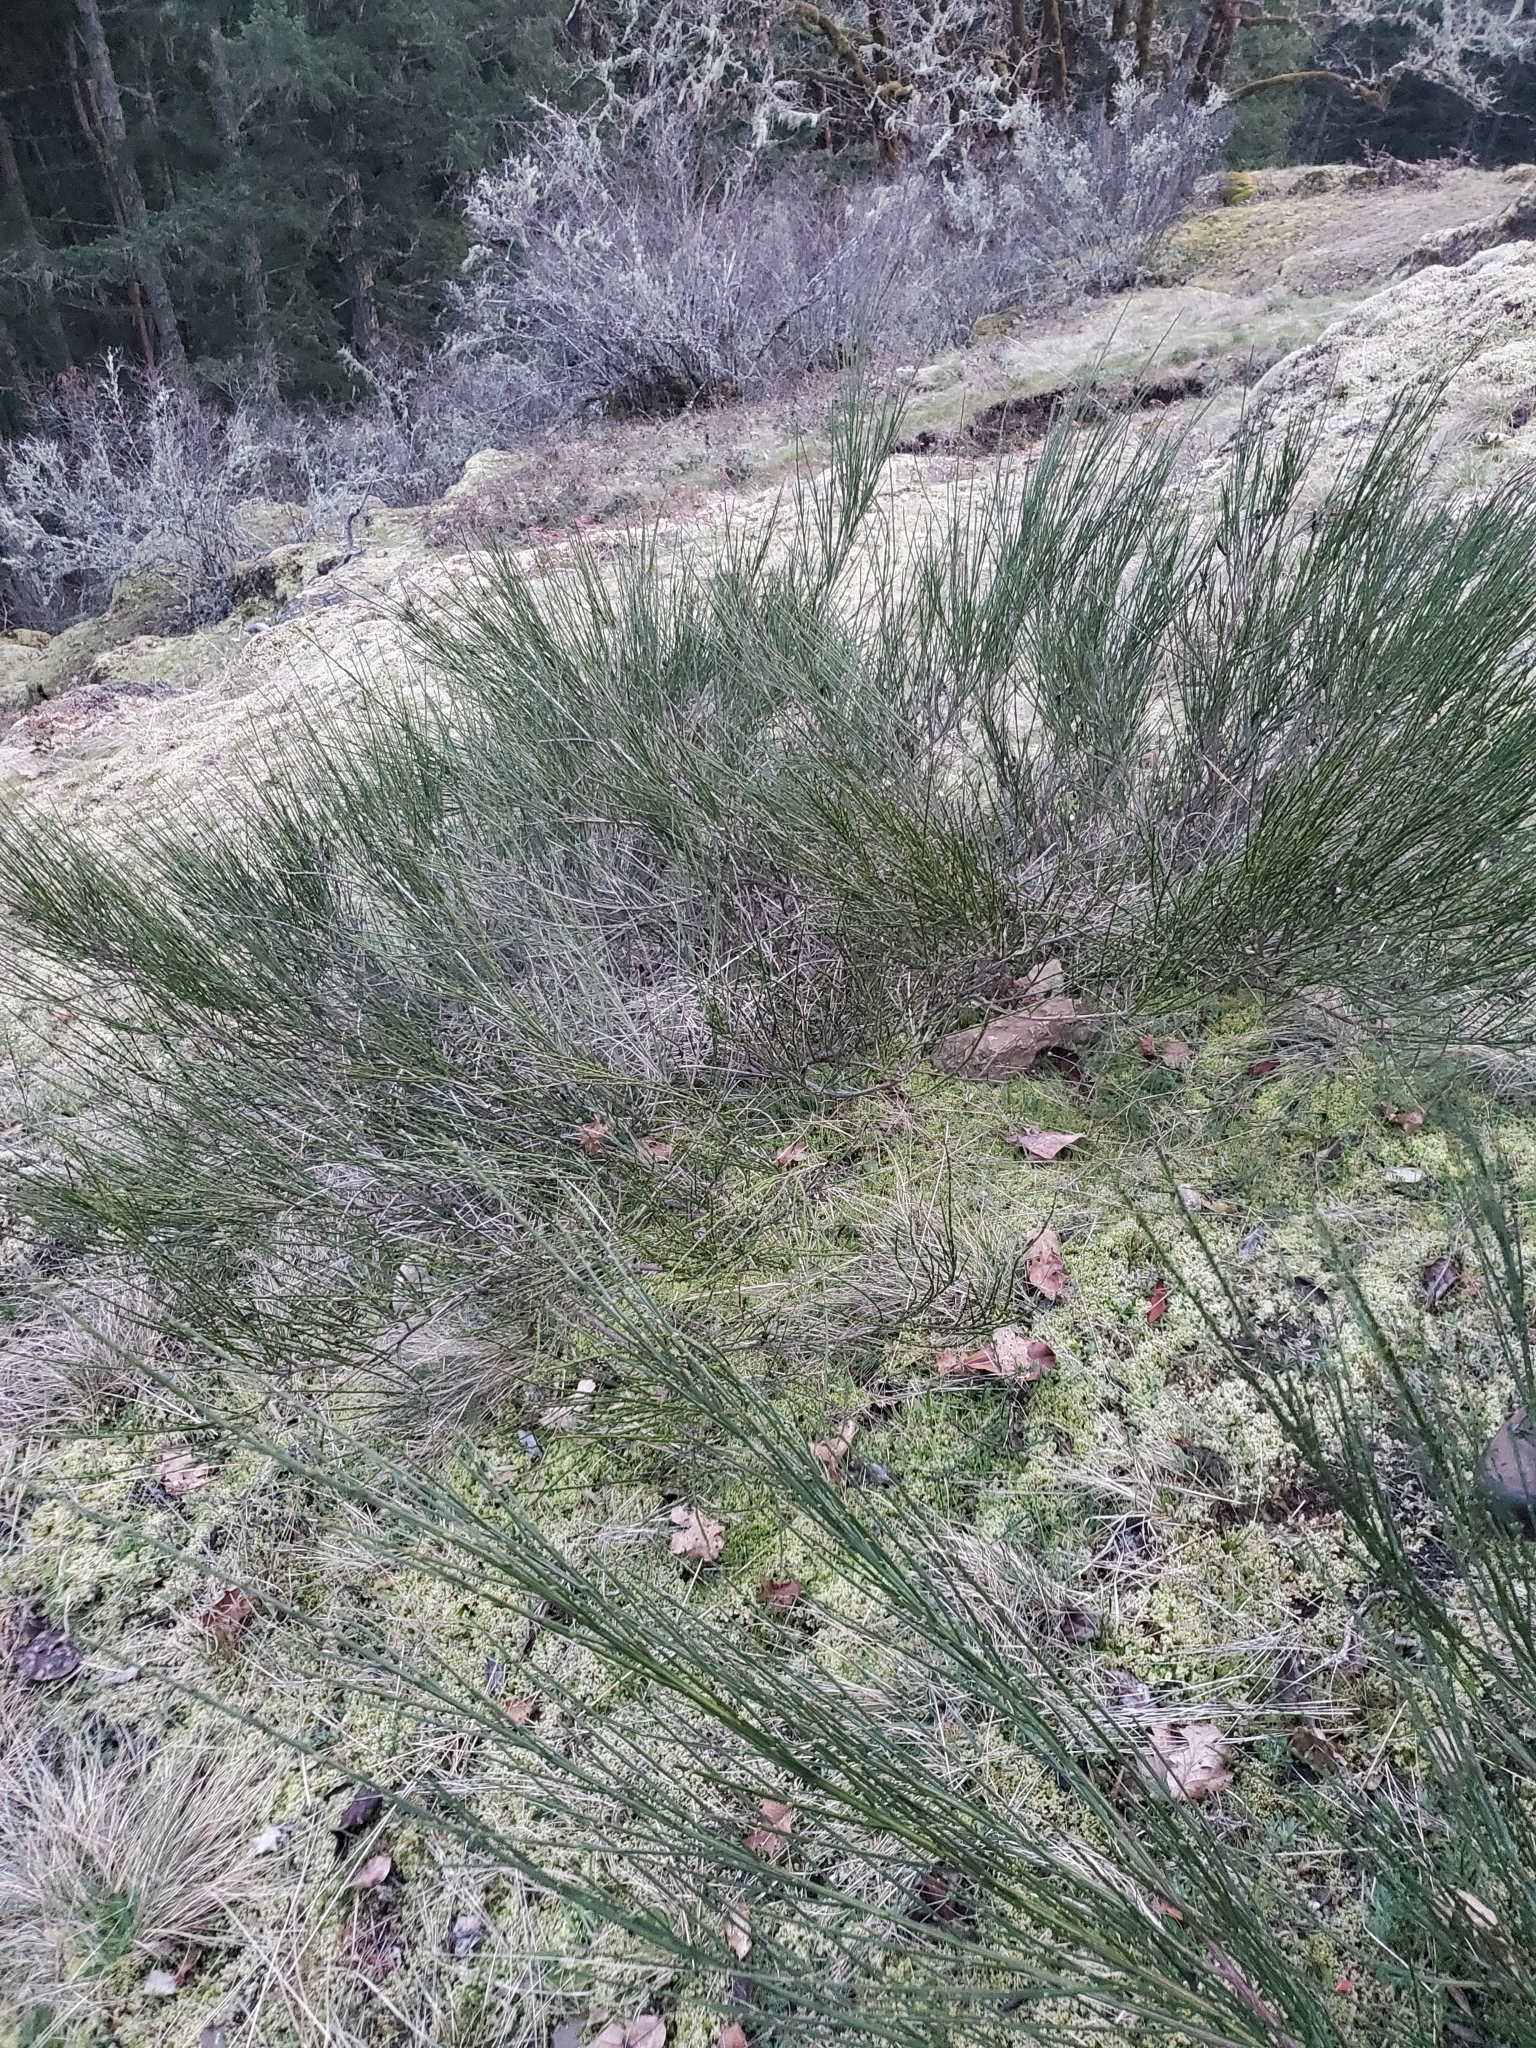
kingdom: Plantae
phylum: Tracheophyta
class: Magnoliopsida
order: Fabales
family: Fabaceae
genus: Cytisus
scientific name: Cytisus scoparius
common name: Scotch broom
